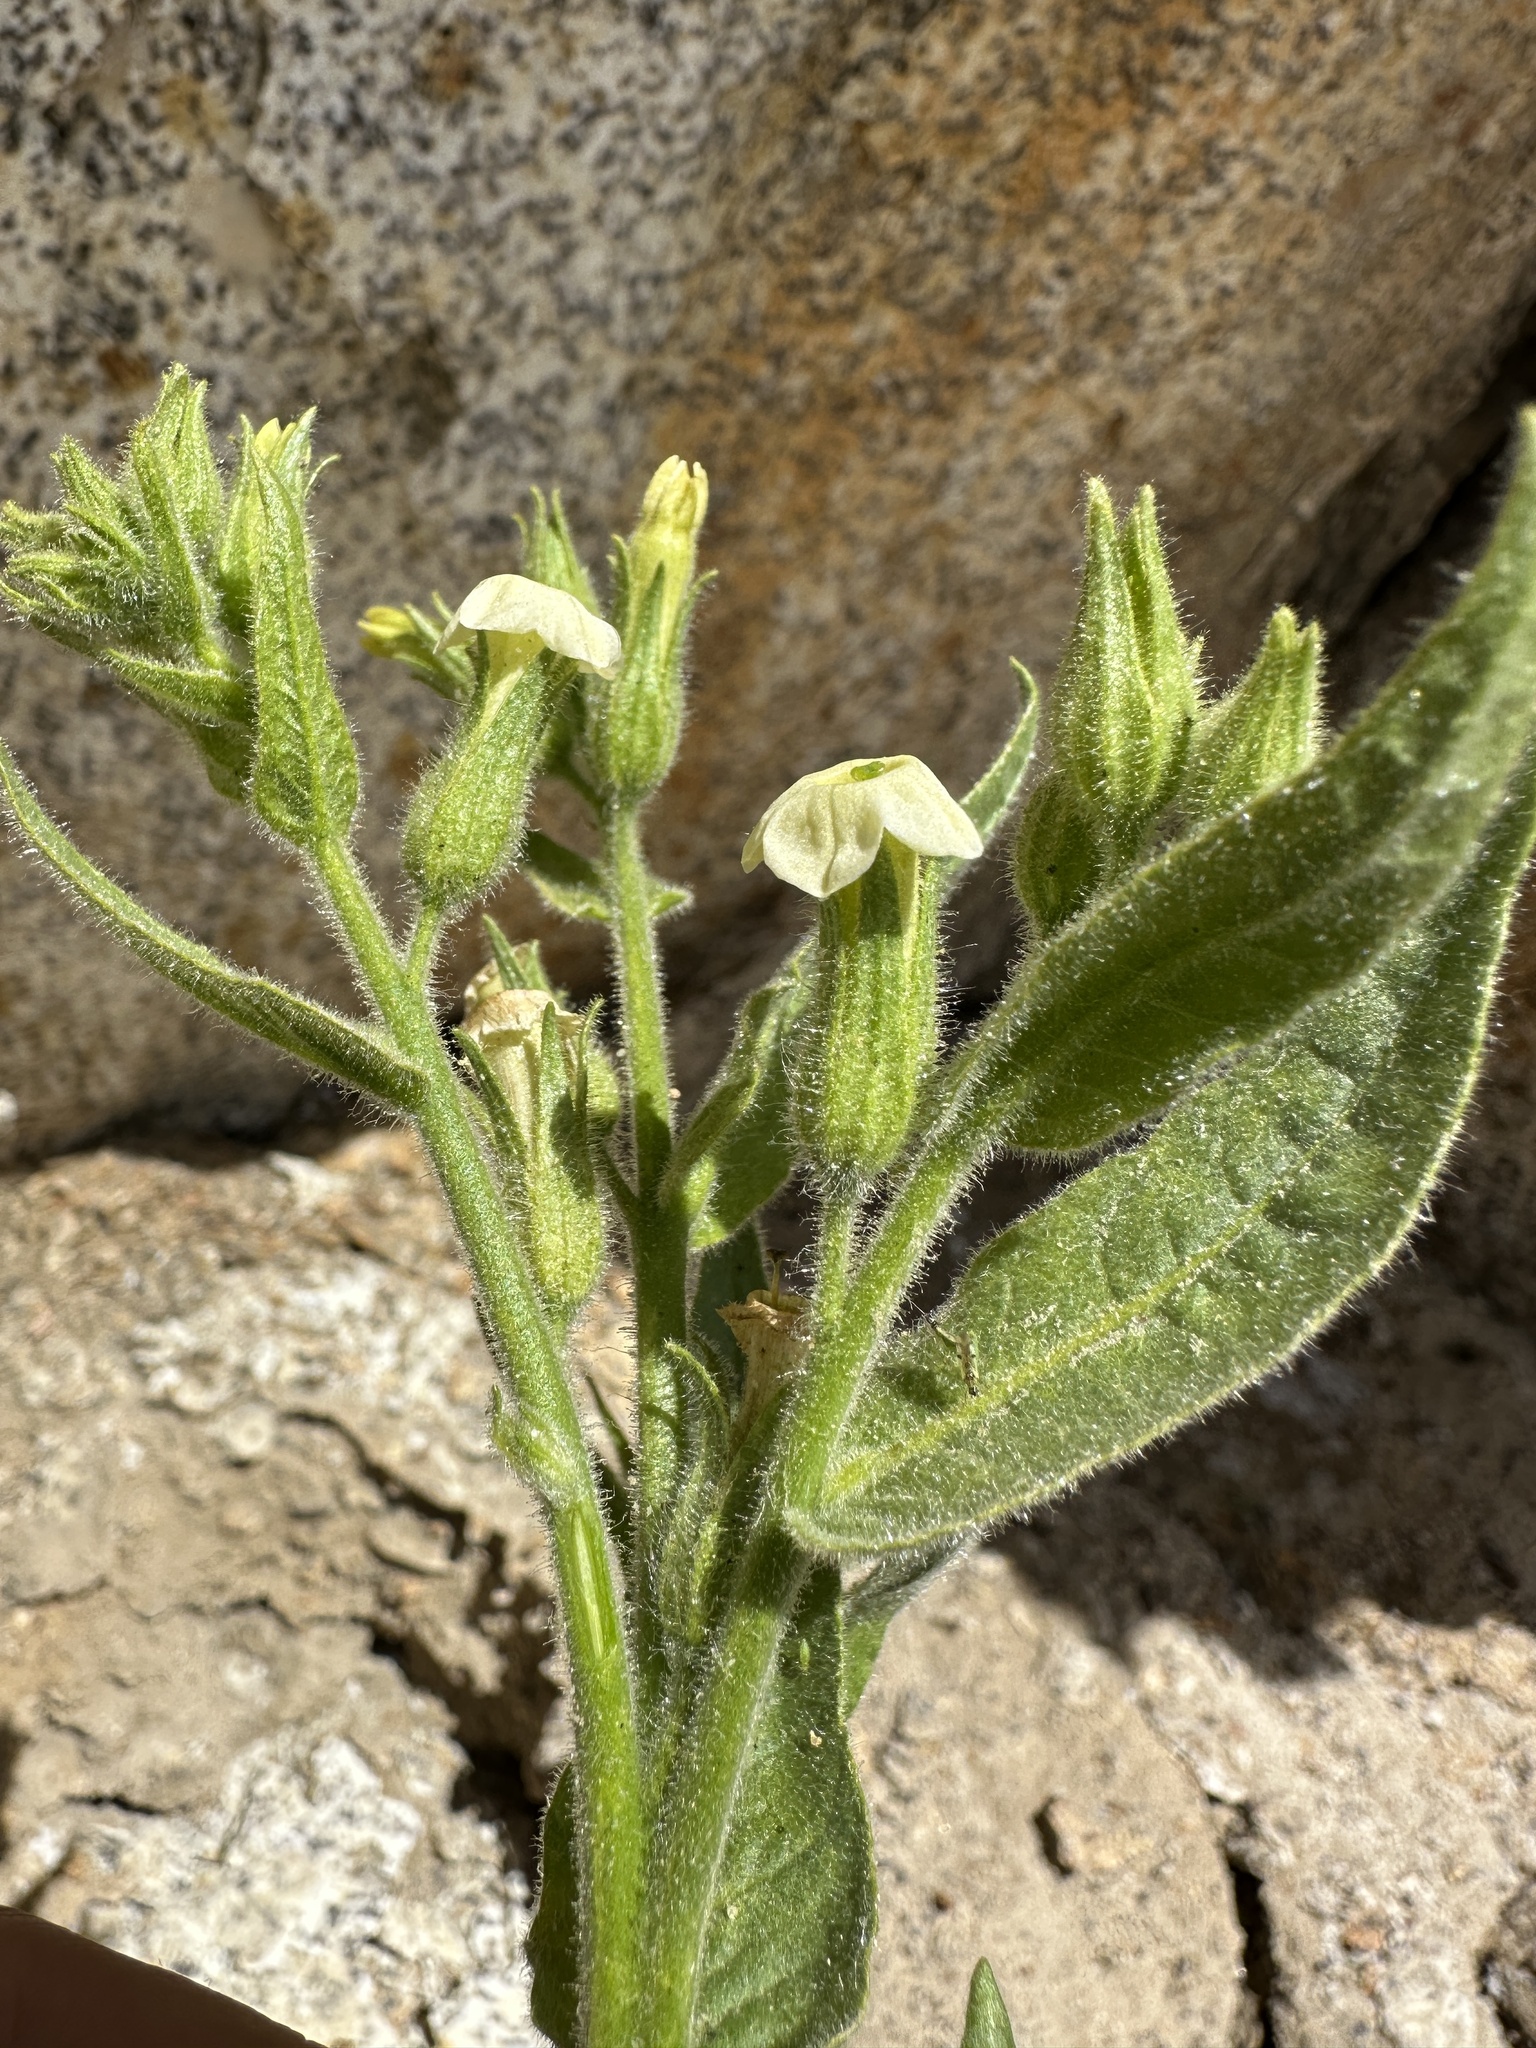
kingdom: Plantae
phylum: Tracheophyta
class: Magnoliopsida
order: Solanales
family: Solanaceae
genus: Nicotiana
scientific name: Nicotiana obtusifolia
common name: Desert tobacco
